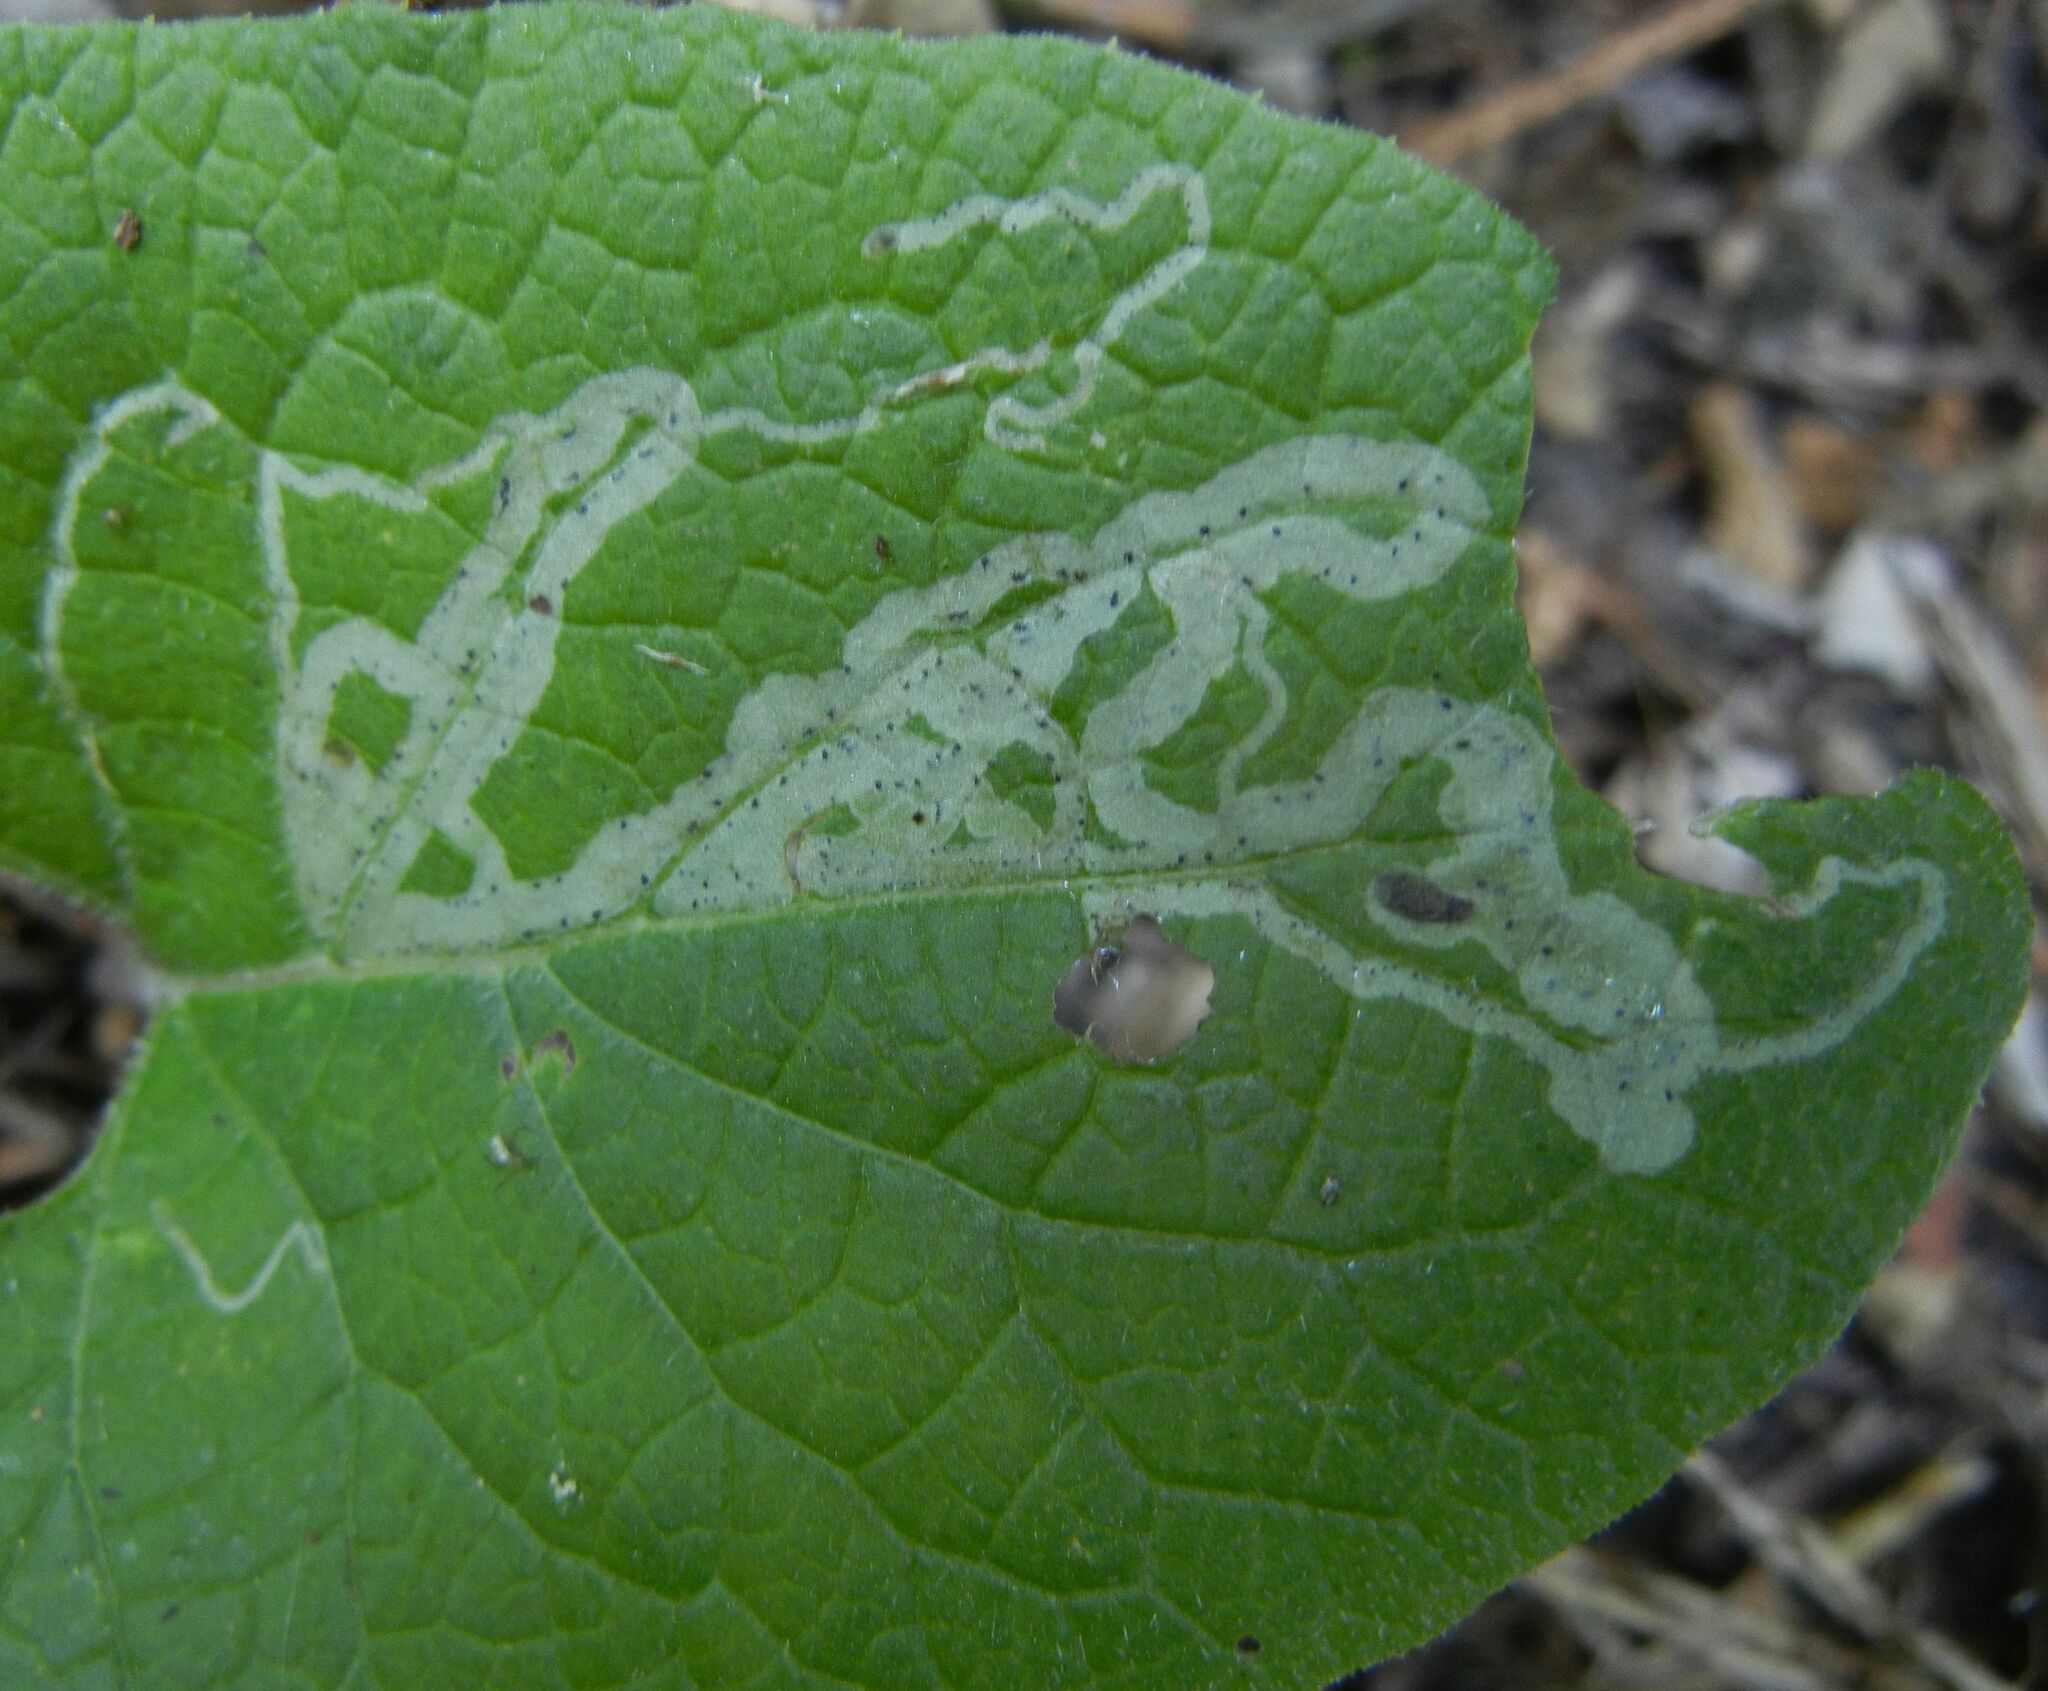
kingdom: Animalia
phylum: Arthropoda
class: Insecta
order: Diptera
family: Agromyzidae
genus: Phytomyza
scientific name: Phytomyza lappae
